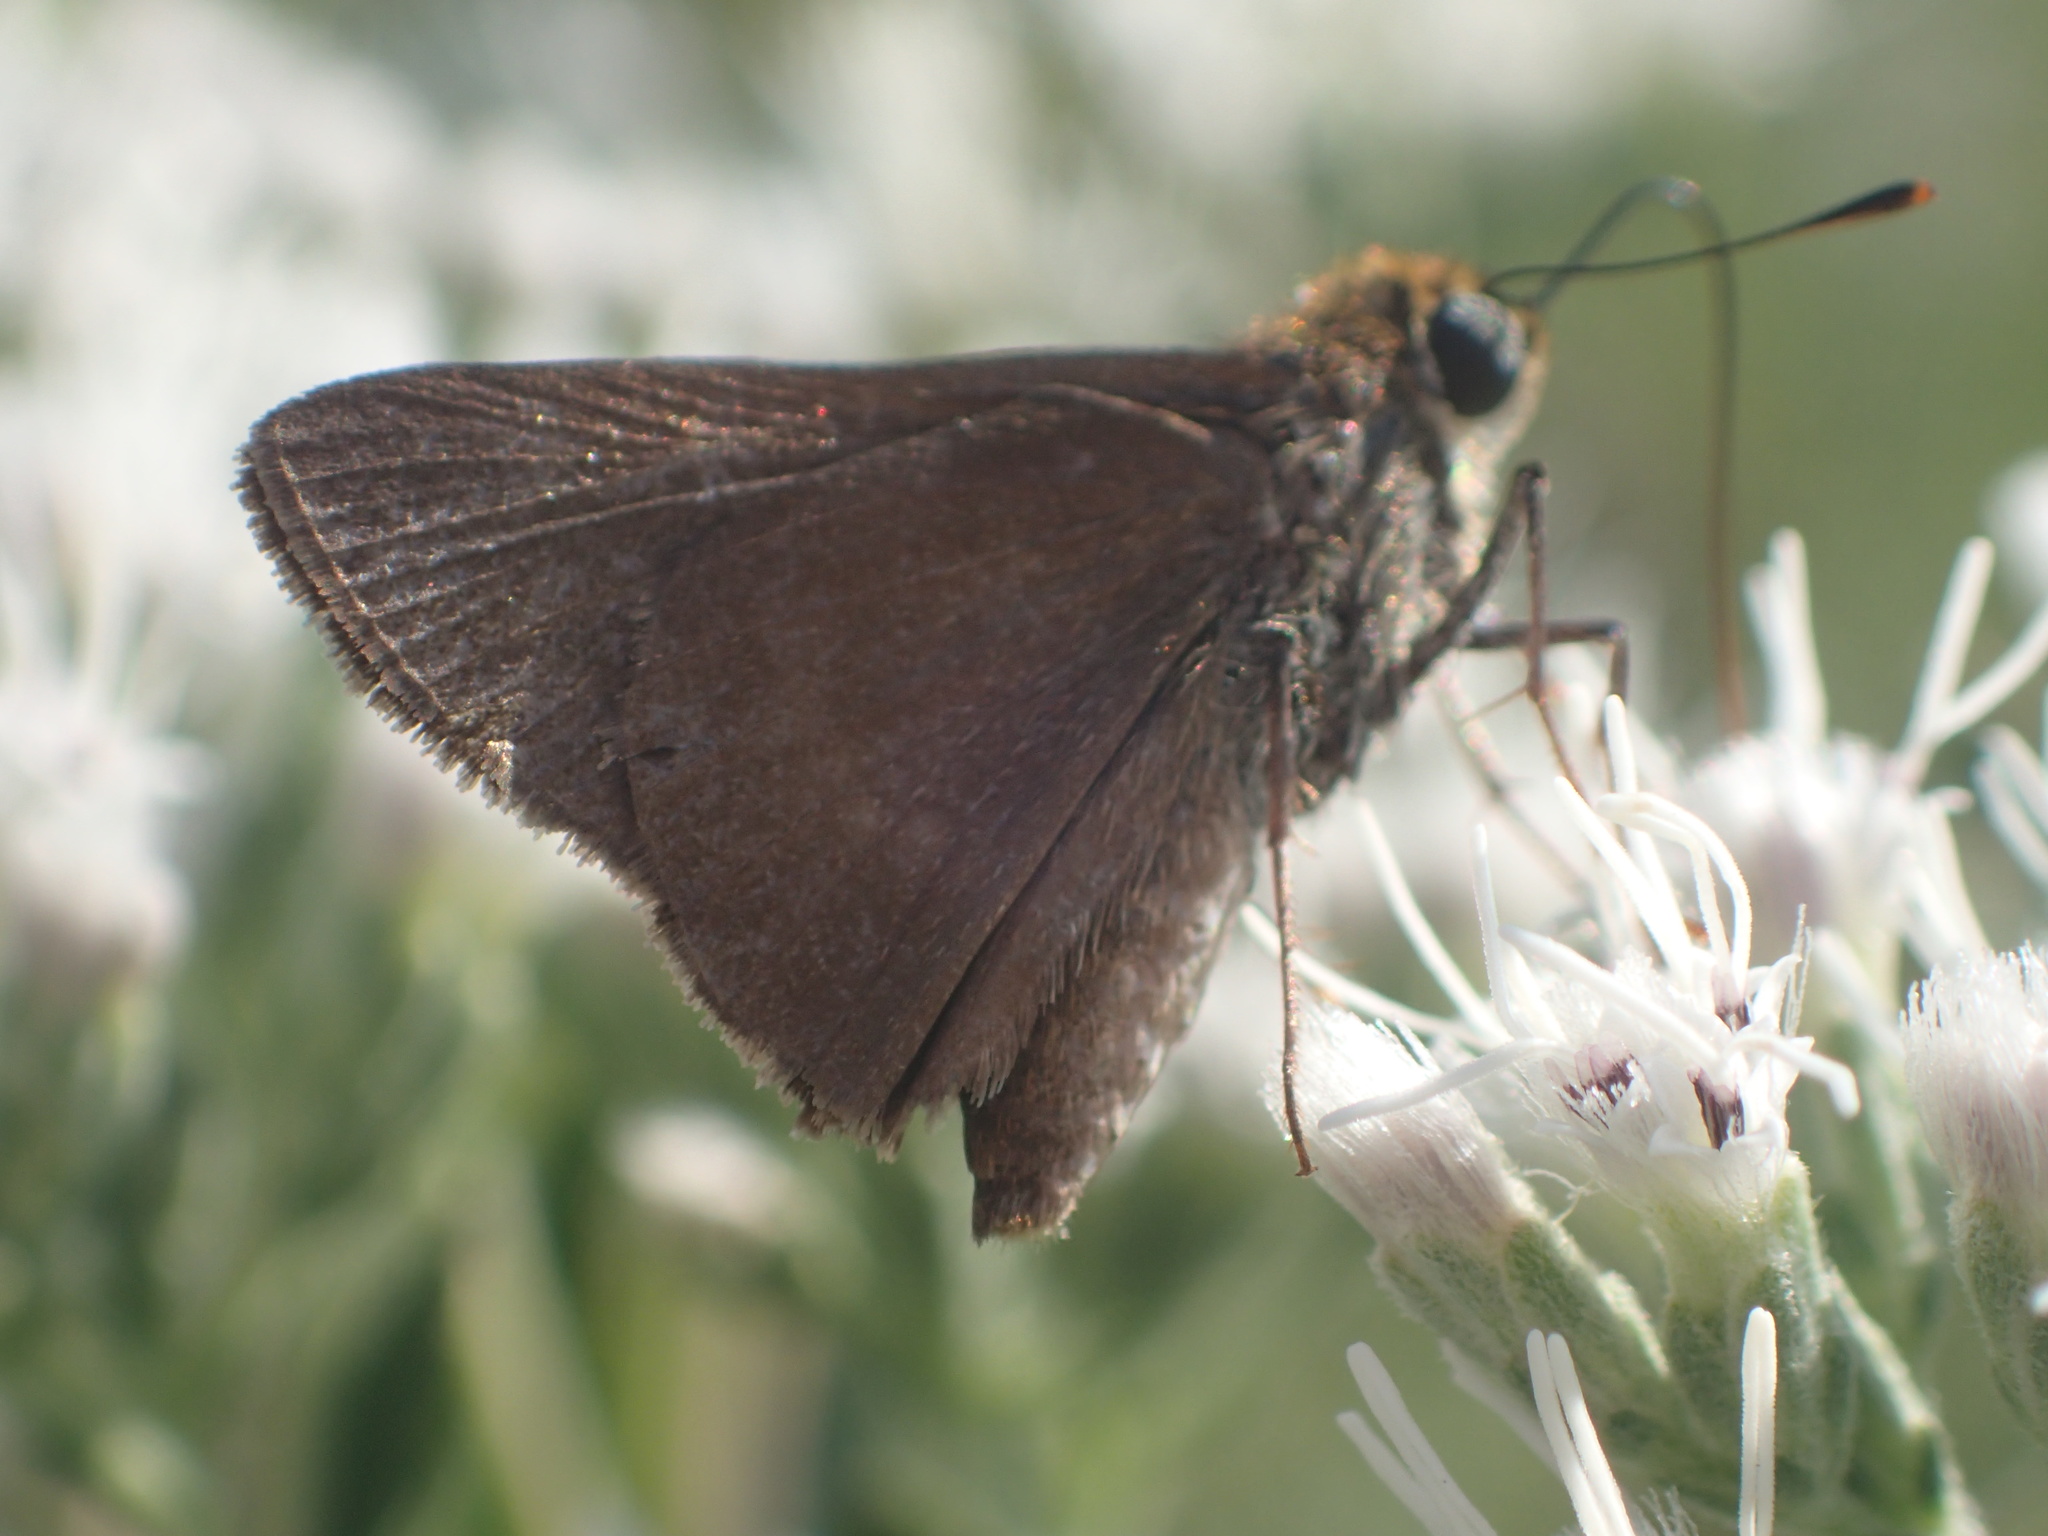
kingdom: Animalia
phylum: Arthropoda
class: Insecta
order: Lepidoptera
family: Hesperiidae
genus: Euphyes
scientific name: Euphyes vestris
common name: Dun skipper
